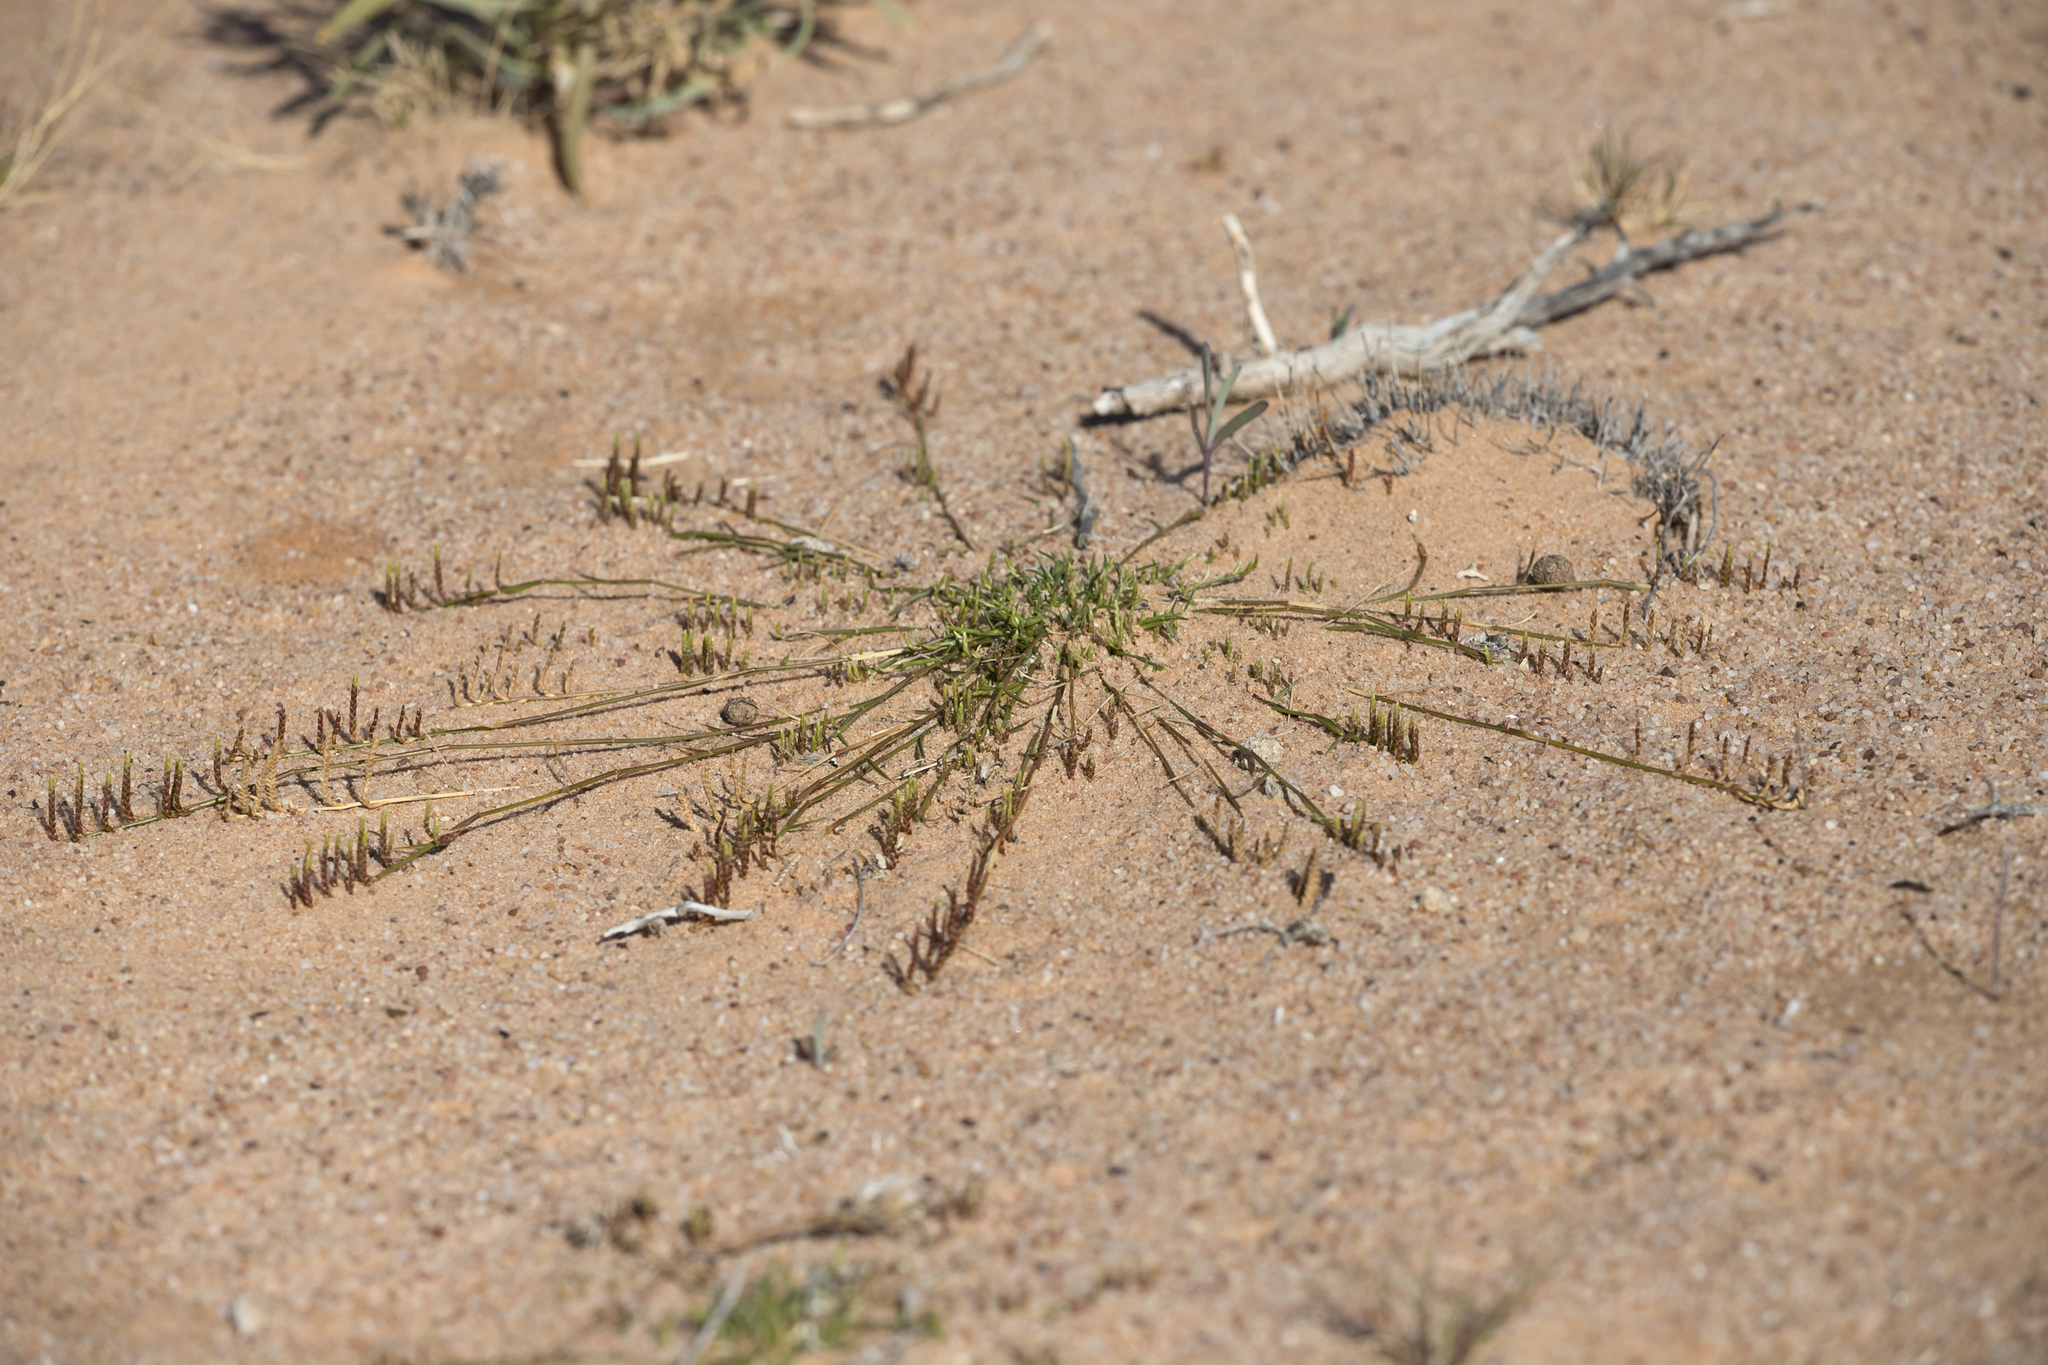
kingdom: Plantae
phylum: Tracheophyta
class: Liliopsida
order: Poales
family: Poaceae
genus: Eragrostis
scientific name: Eragrostis dielsii
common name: Lovegrass
